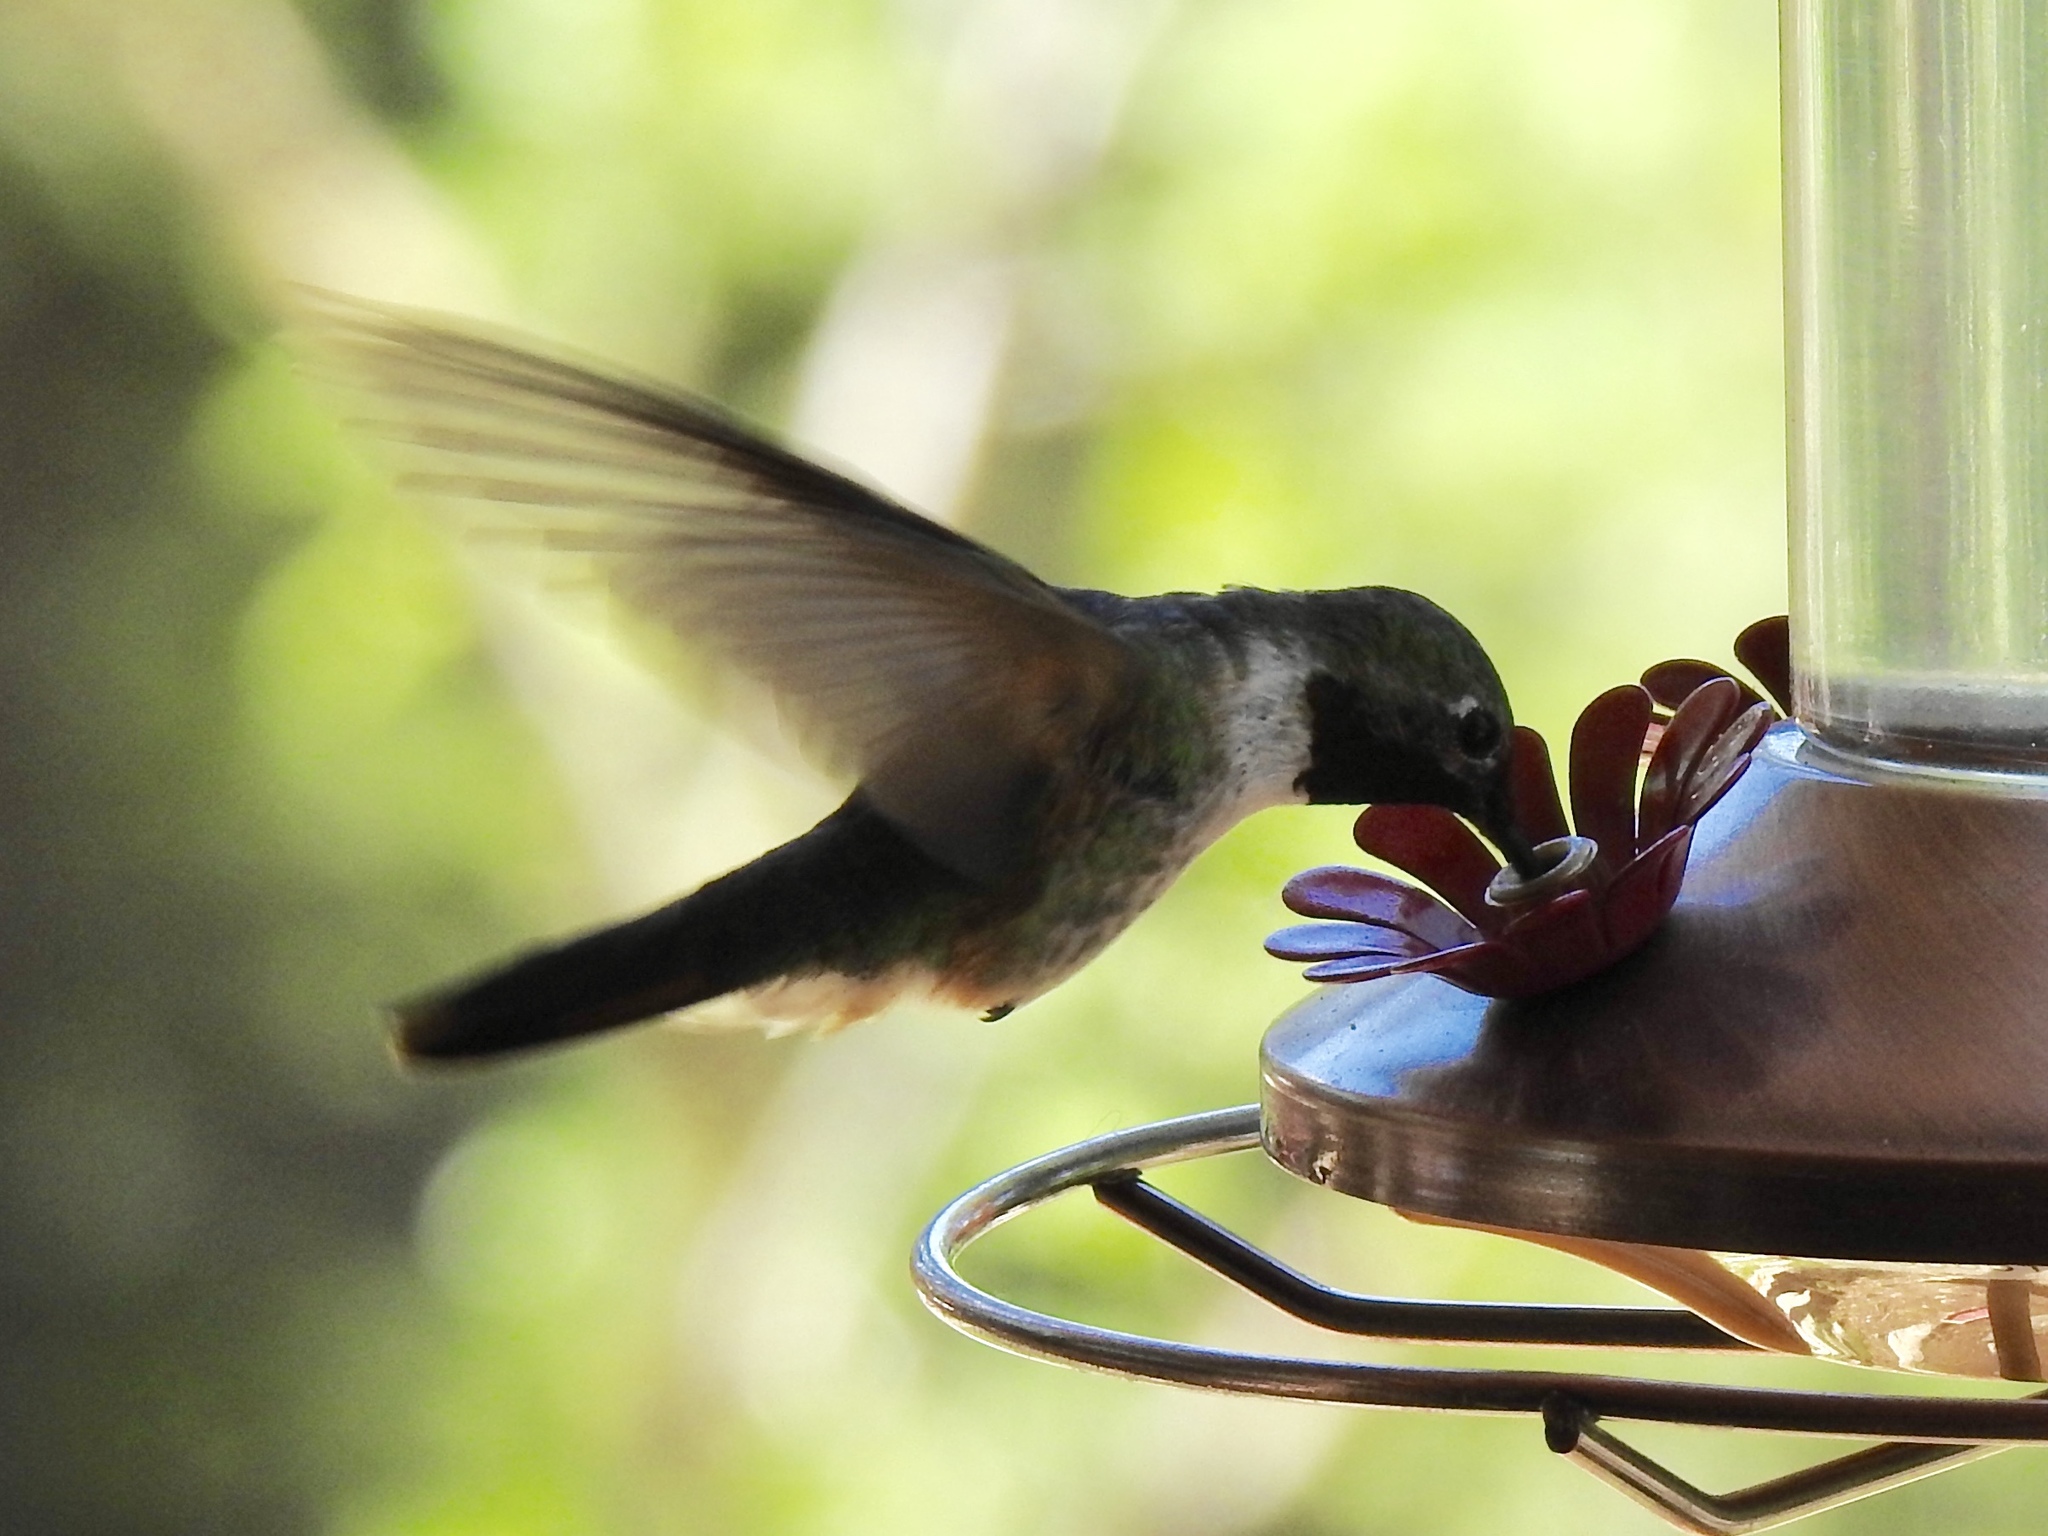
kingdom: Animalia
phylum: Chordata
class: Aves
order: Apodiformes
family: Trochilidae
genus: Selasphorus
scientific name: Selasphorus platycercus
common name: Broad-tailed hummingbird
